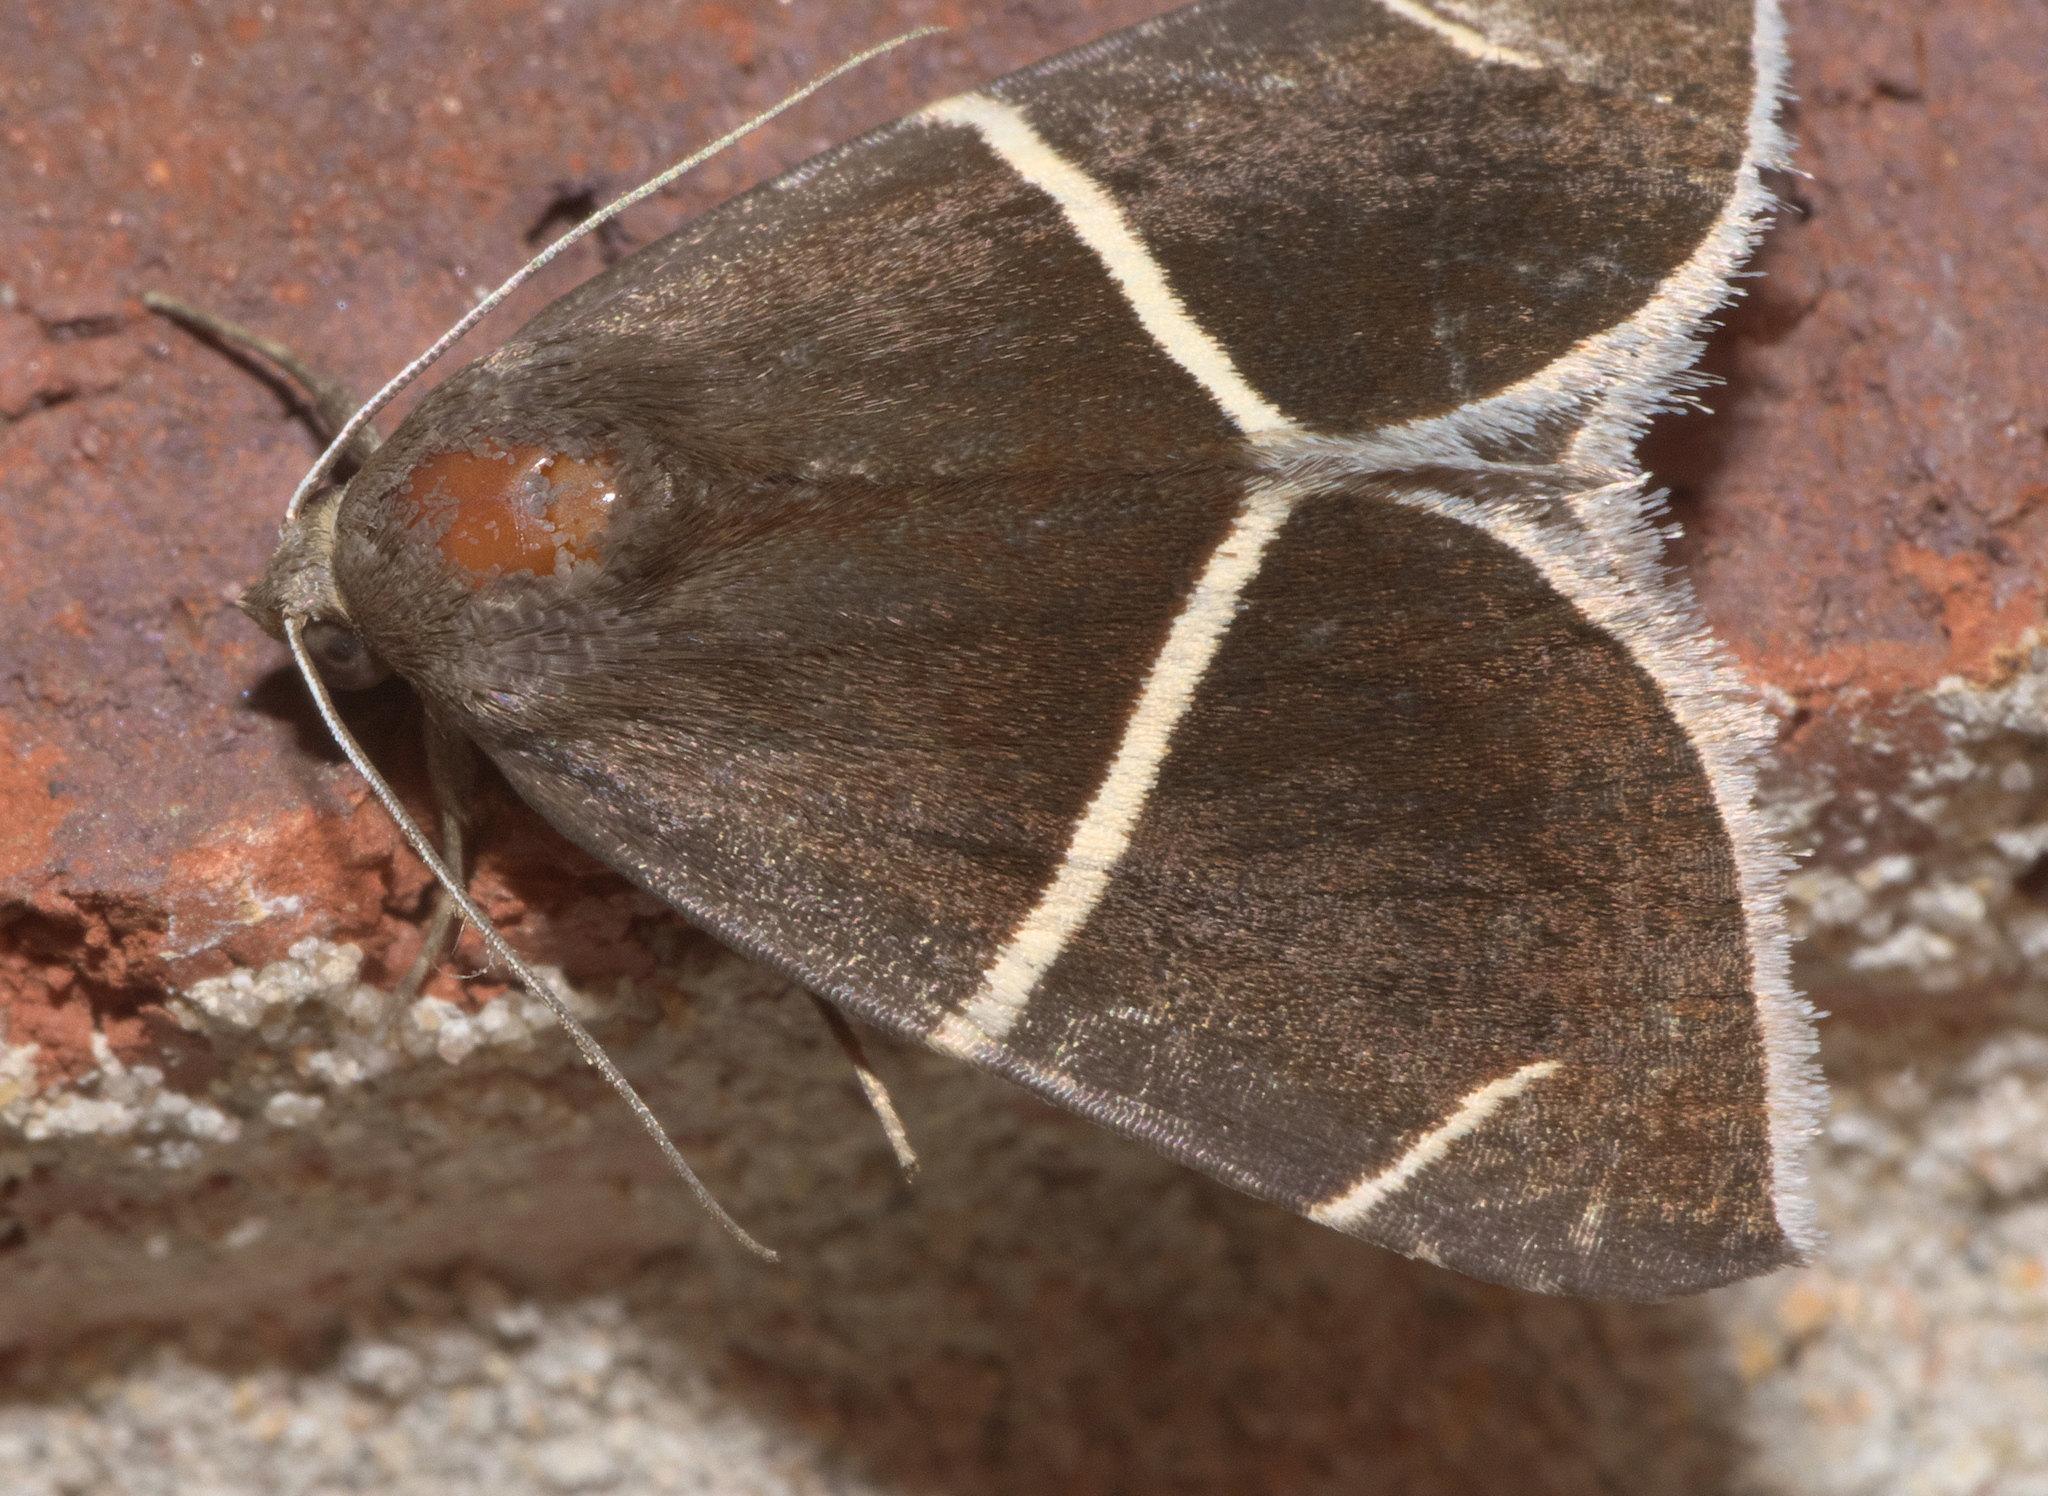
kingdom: Animalia
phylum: Arthropoda
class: Insecta
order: Lepidoptera
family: Erebidae
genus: Argyrostrotis
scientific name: Argyrostrotis anilis
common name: Short-lined chocolate
